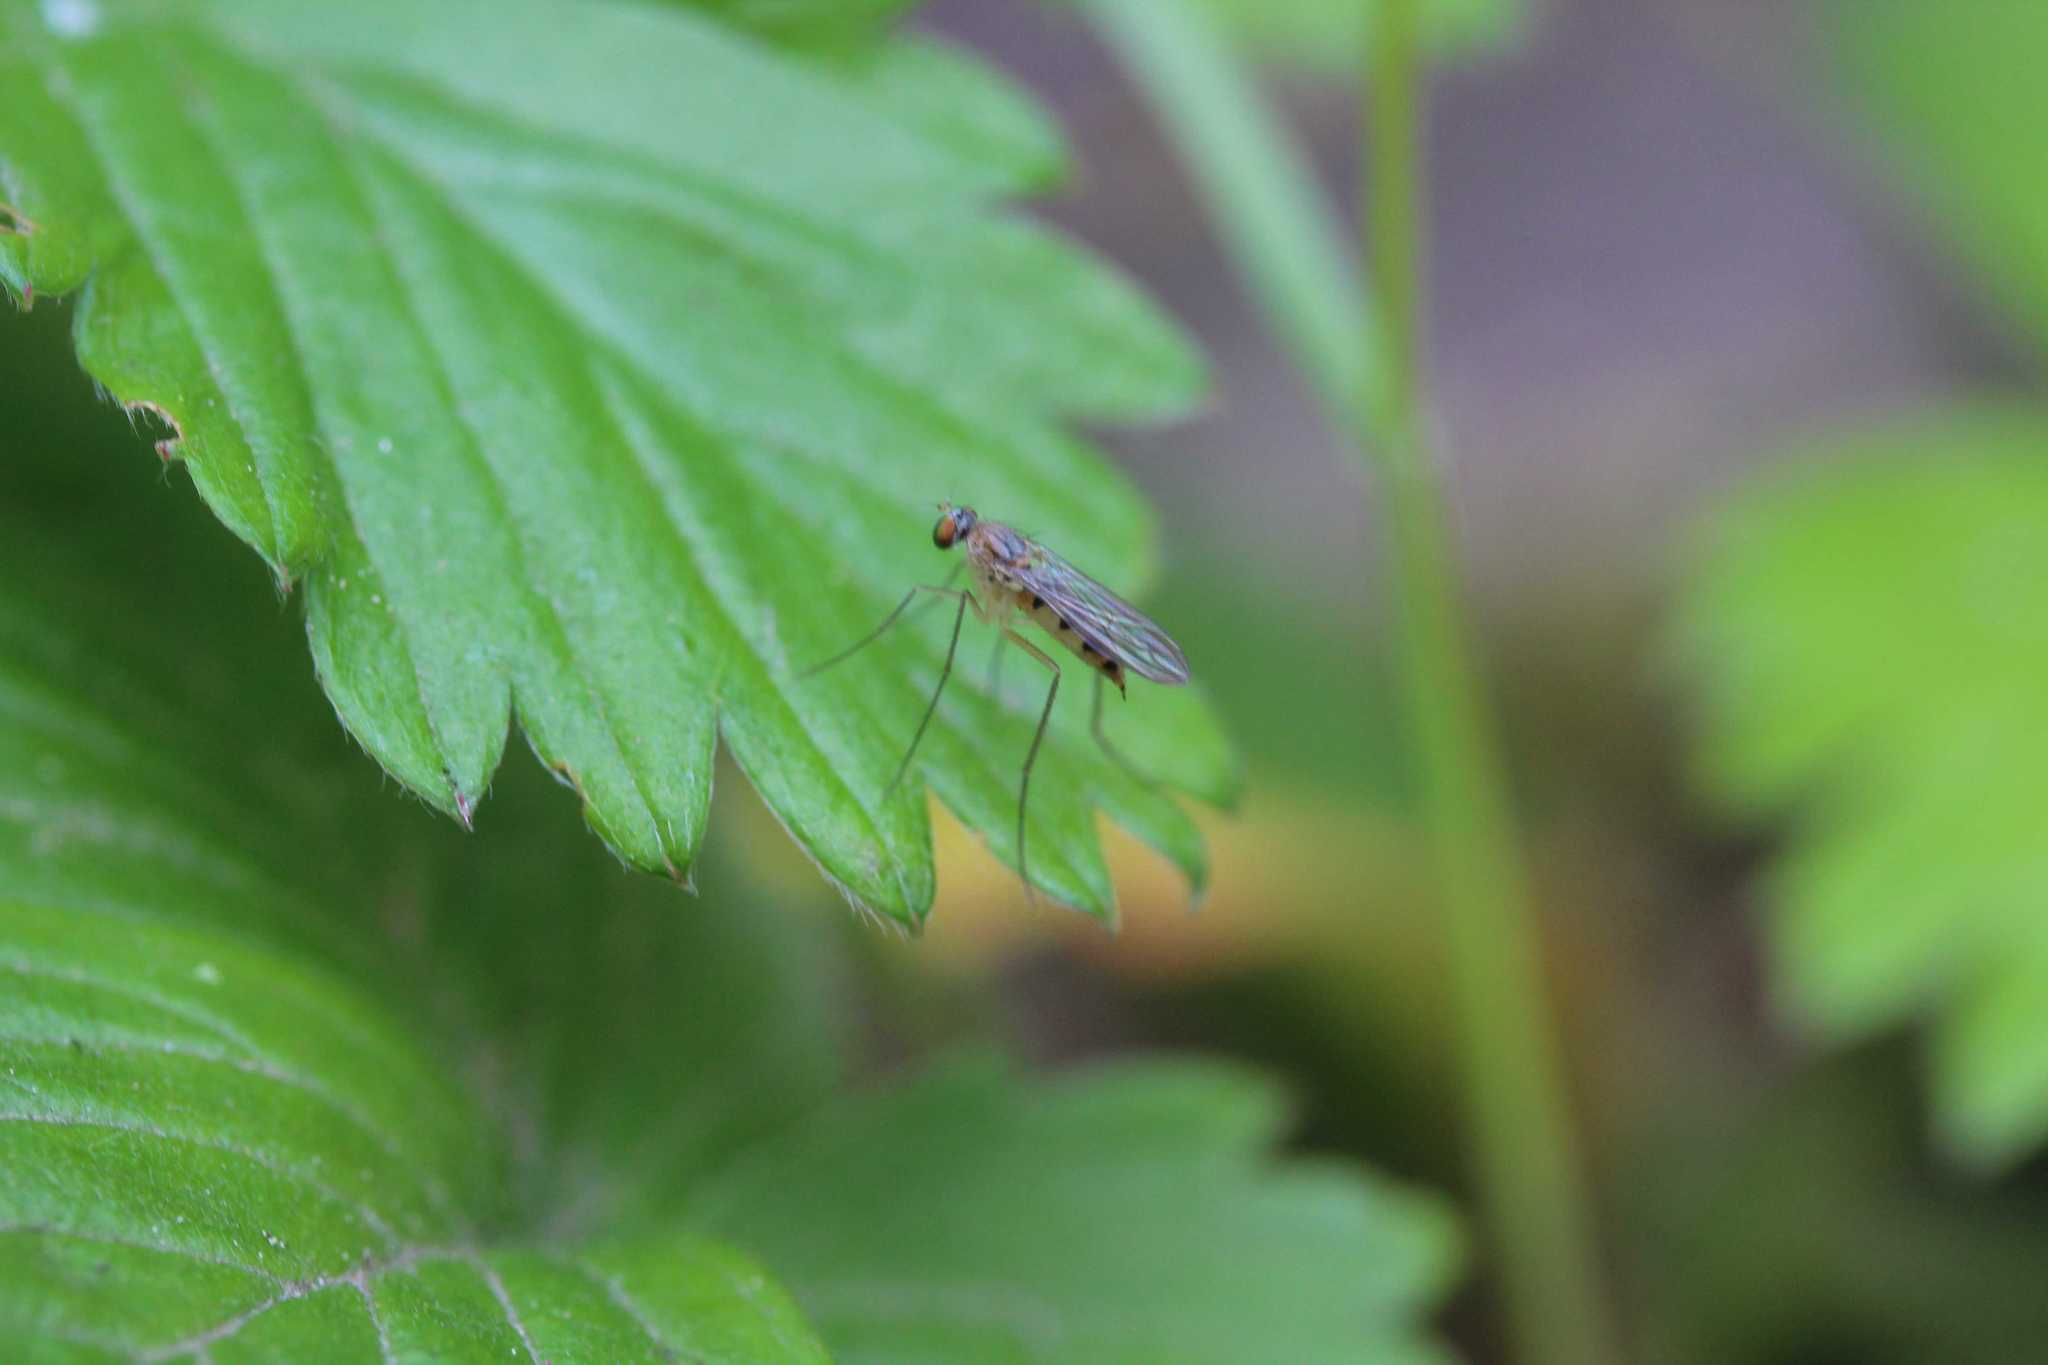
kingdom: Animalia
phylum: Arthropoda
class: Insecta
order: Diptera
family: Dolichopodidae
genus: Neurigona
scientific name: Neurigona quadrifasciata
